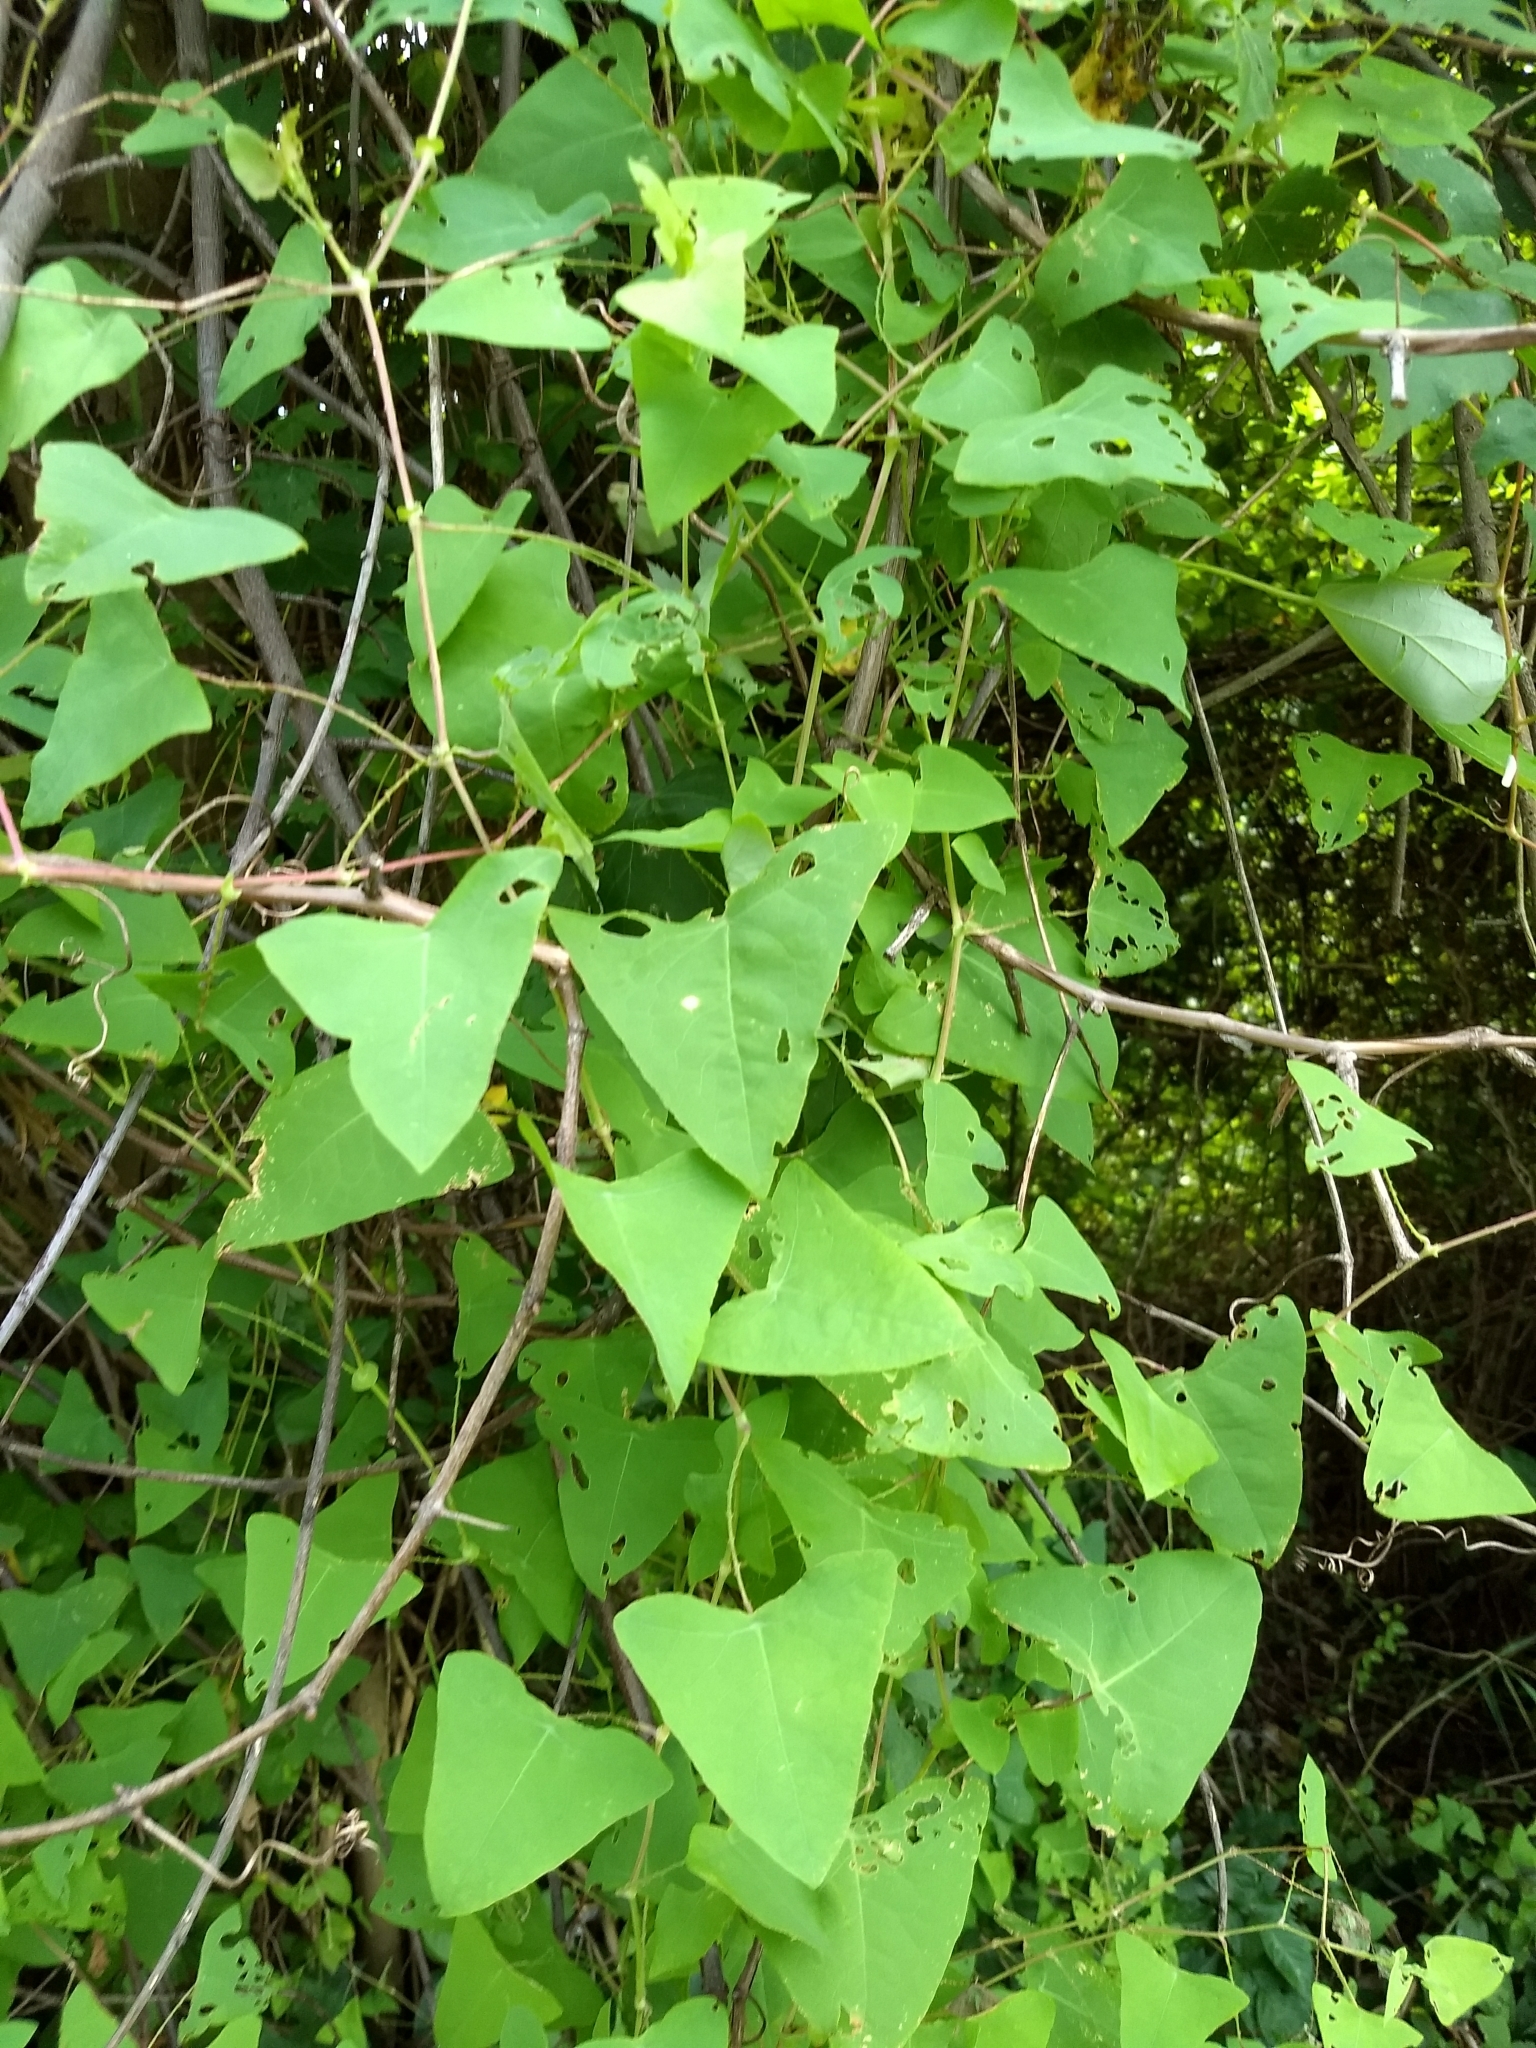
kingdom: Plantae
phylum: Tracheophyta
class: Magnoliopsida
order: Caryophyllales
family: Polygonaceae
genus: Persicaria
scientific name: Persicaria perfoliata
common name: Asiatic tearthumb
